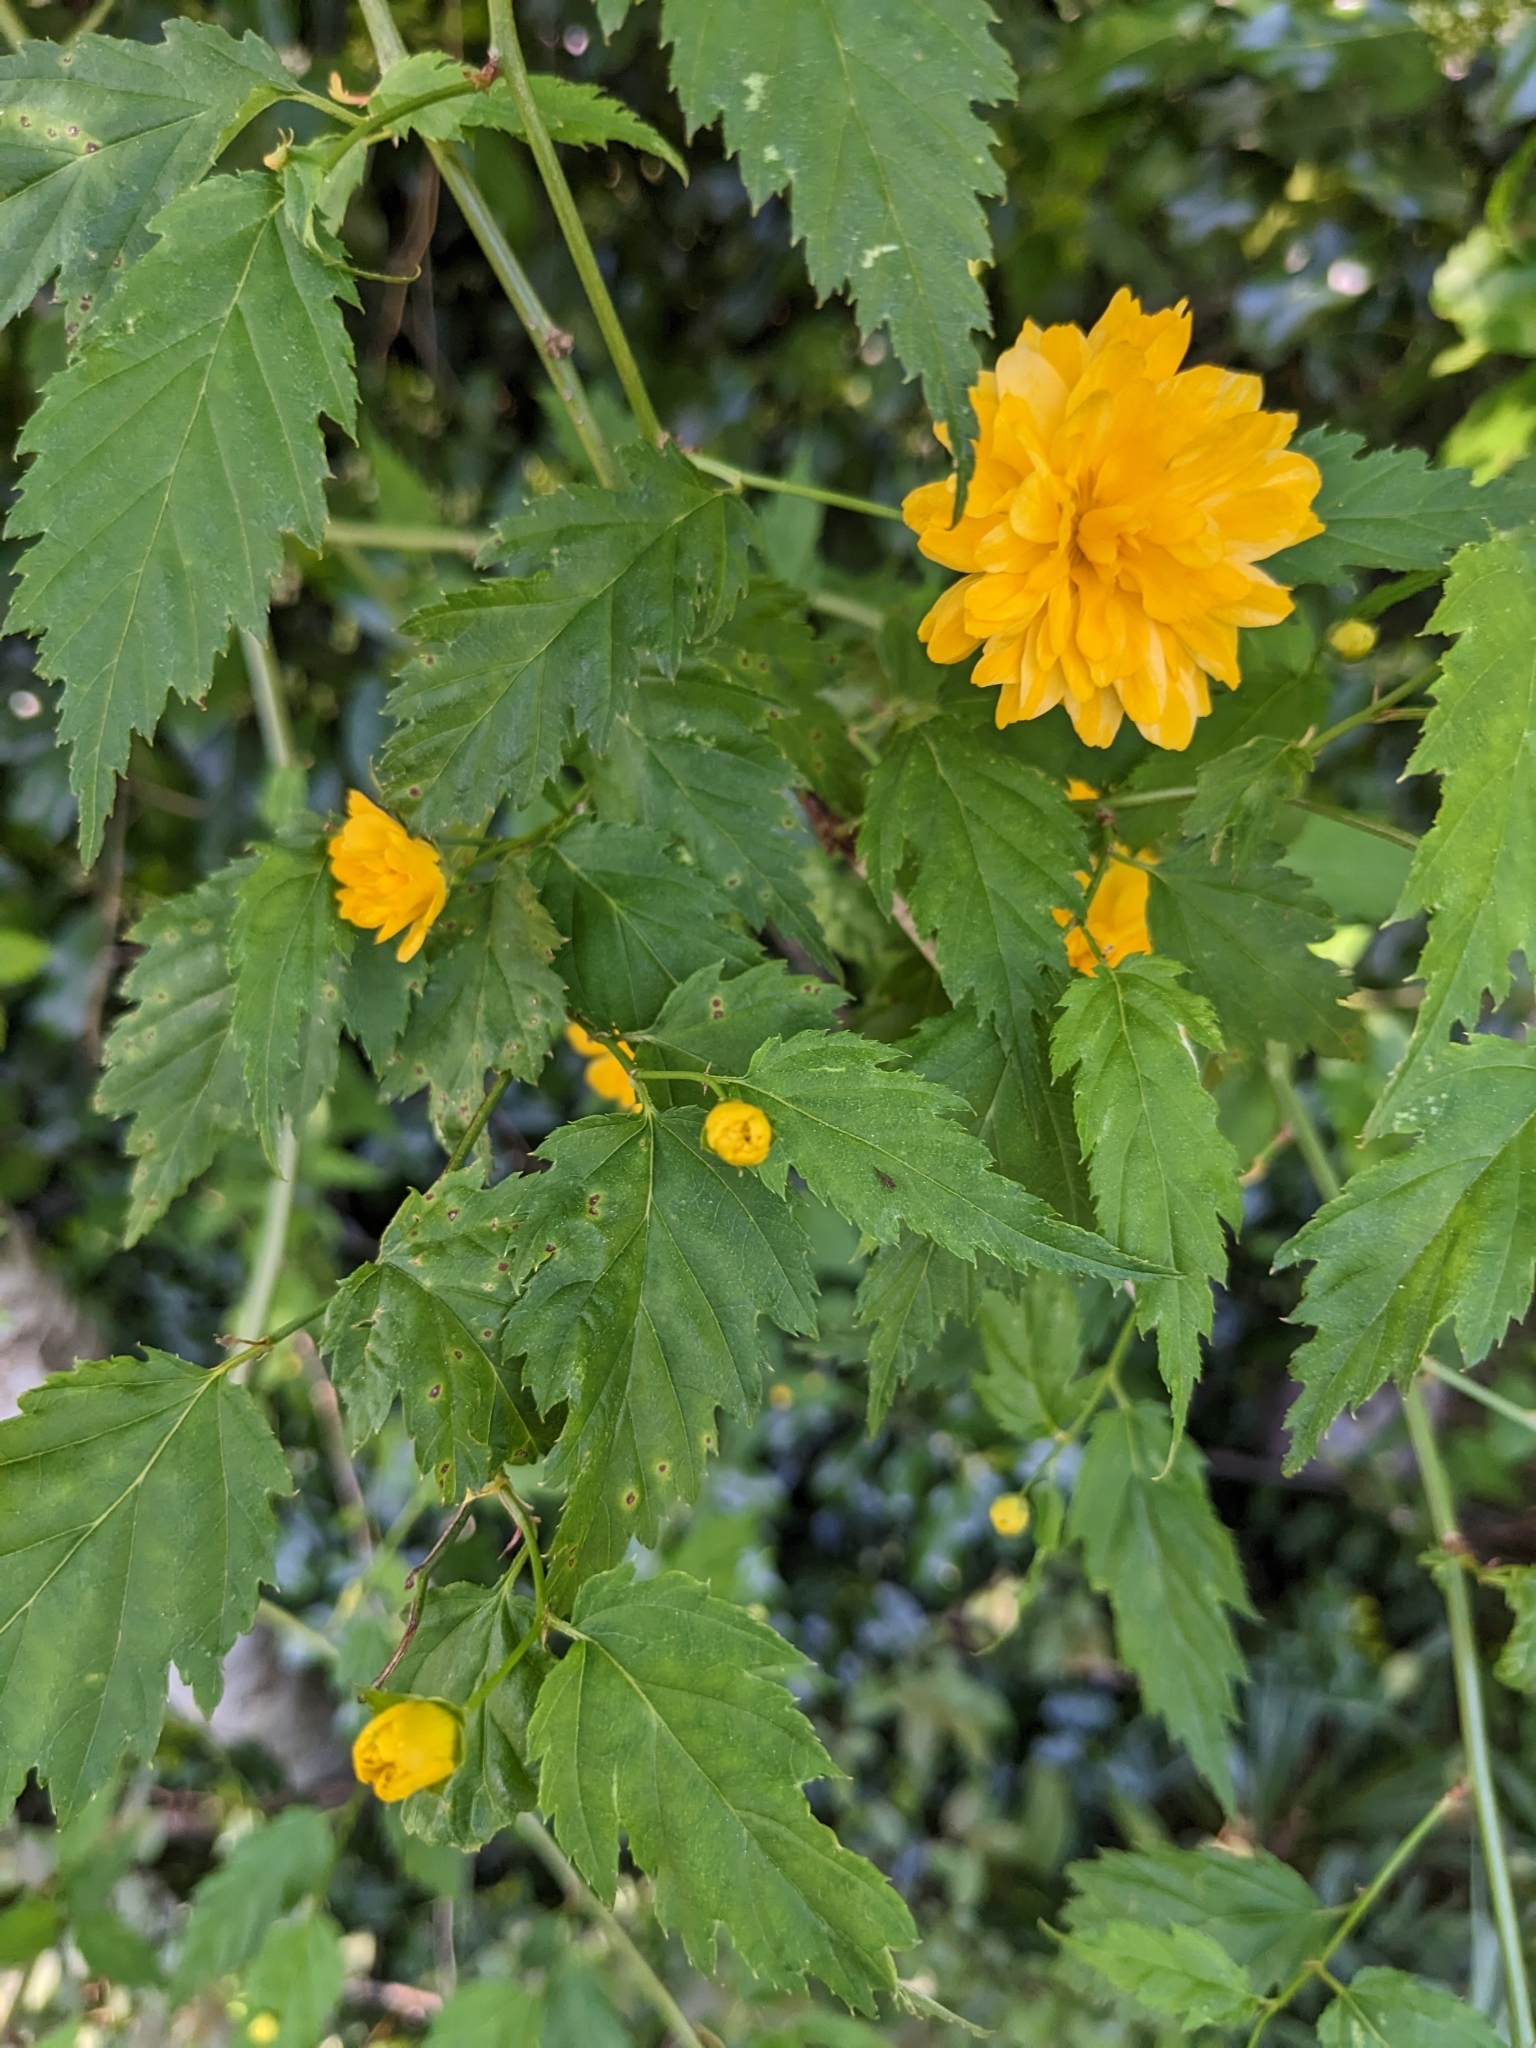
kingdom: Plantae
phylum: Tracheophyta
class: Magnoliopsida
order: Rosales
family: Rosaceae
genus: Kerria
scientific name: Kerria japonica
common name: Japanese kerria
